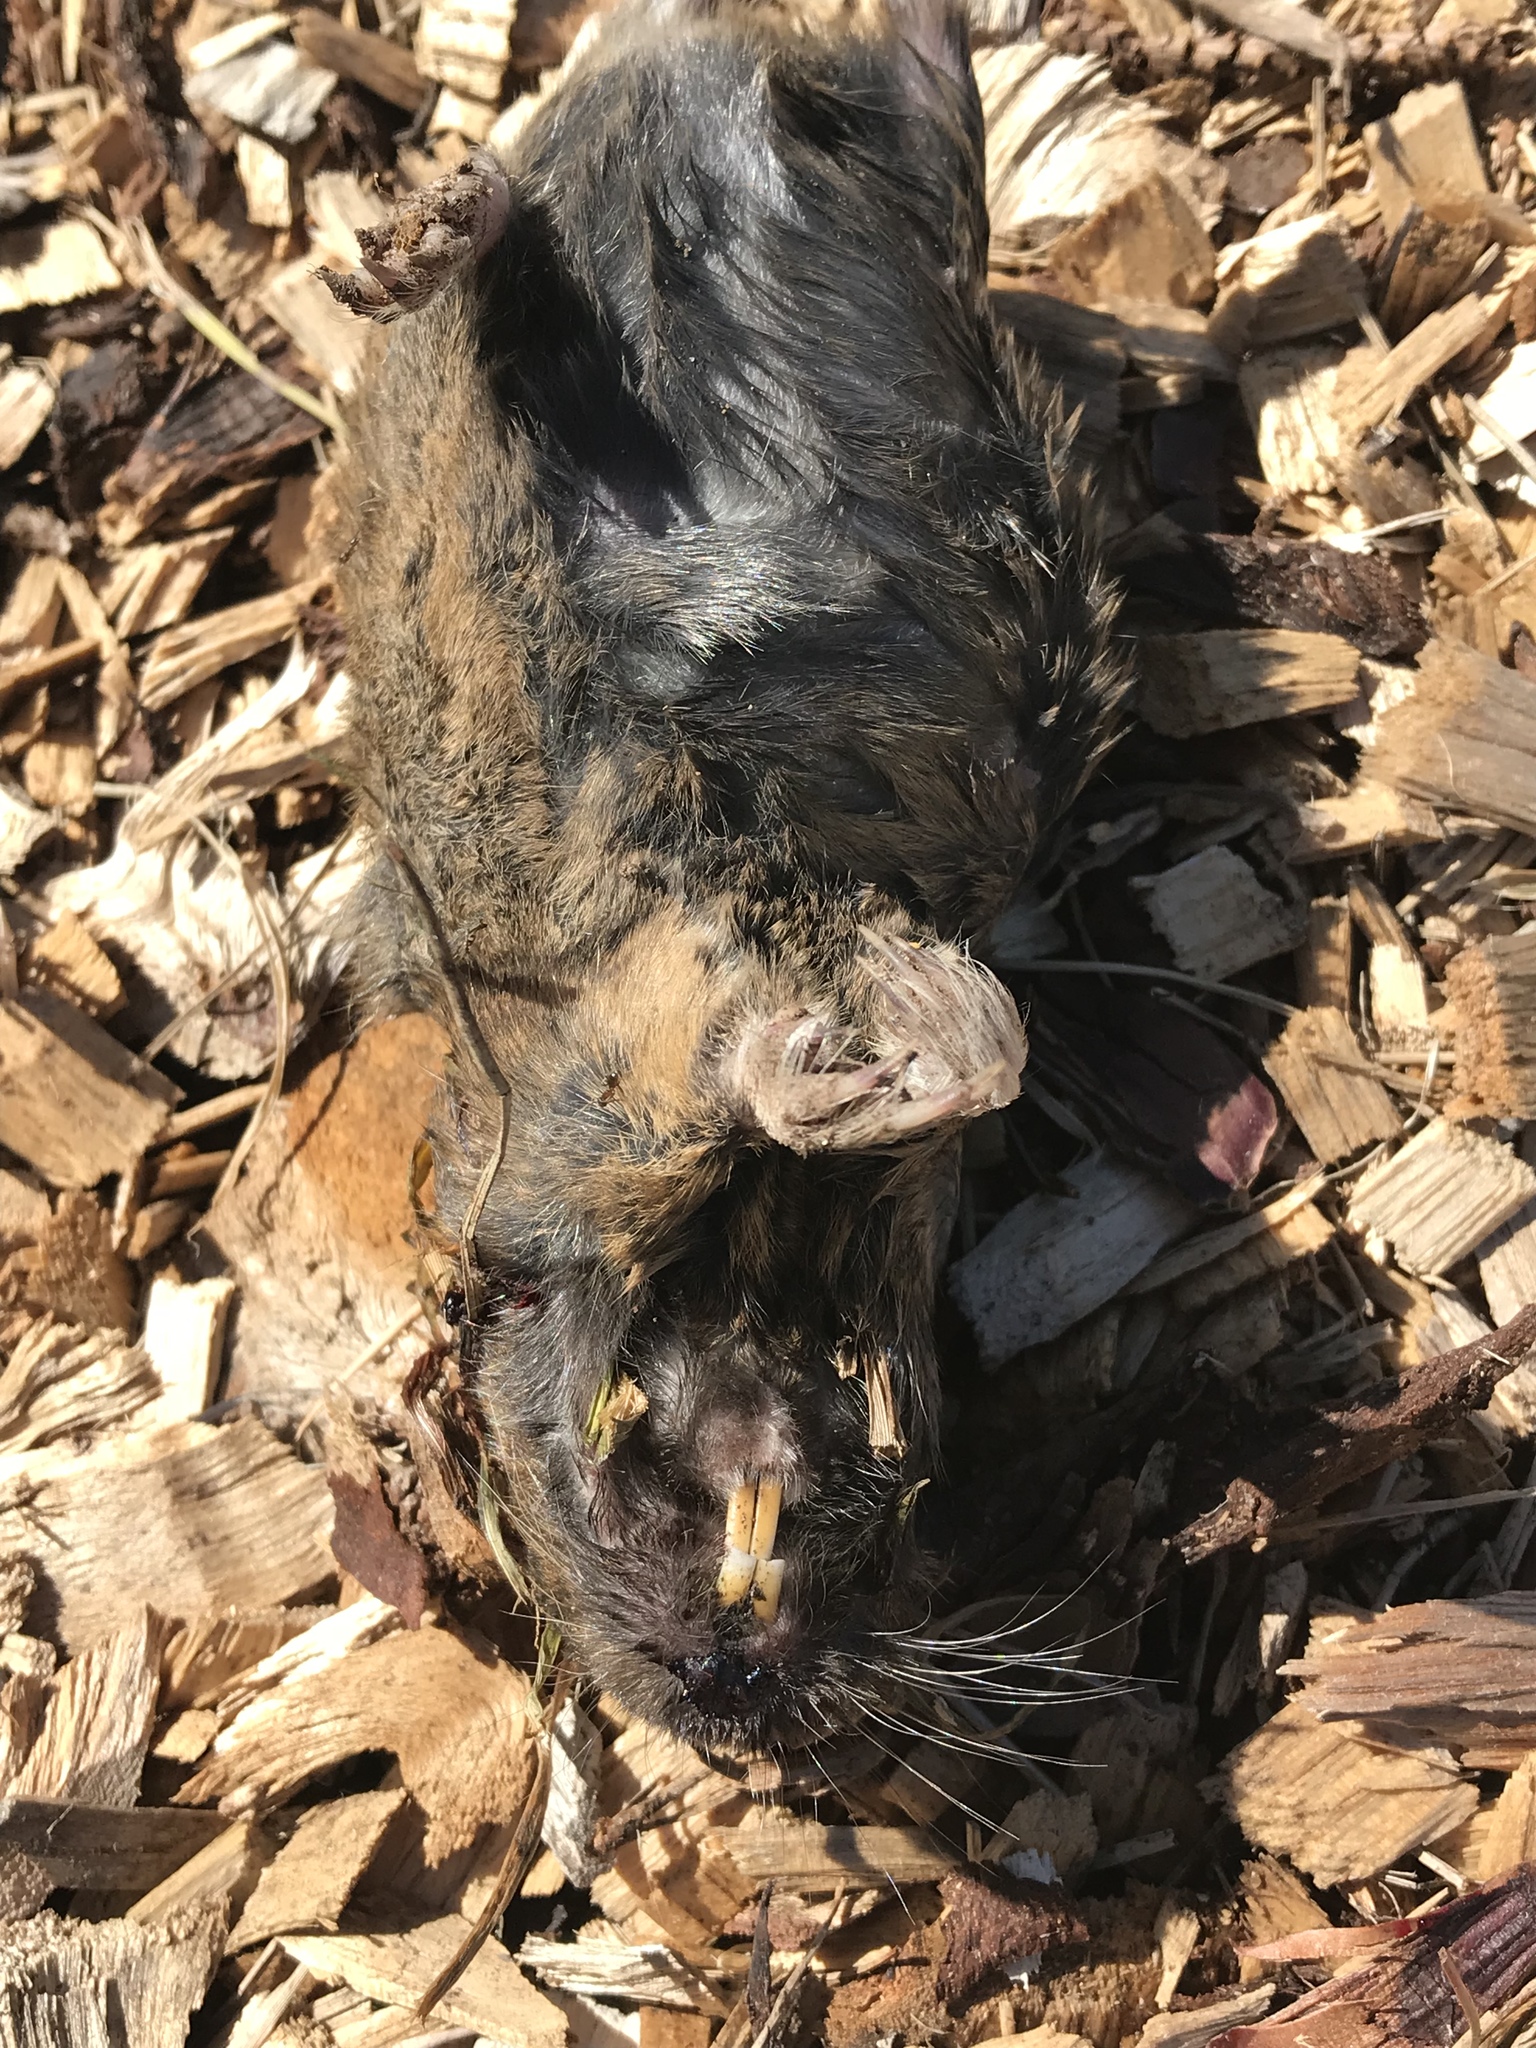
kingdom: Animalia
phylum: Chordata
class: Mammalia
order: Rodentia
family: Geomyidae
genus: Thomomys
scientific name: Thomomys bottae
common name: Botta's pocket gopher
